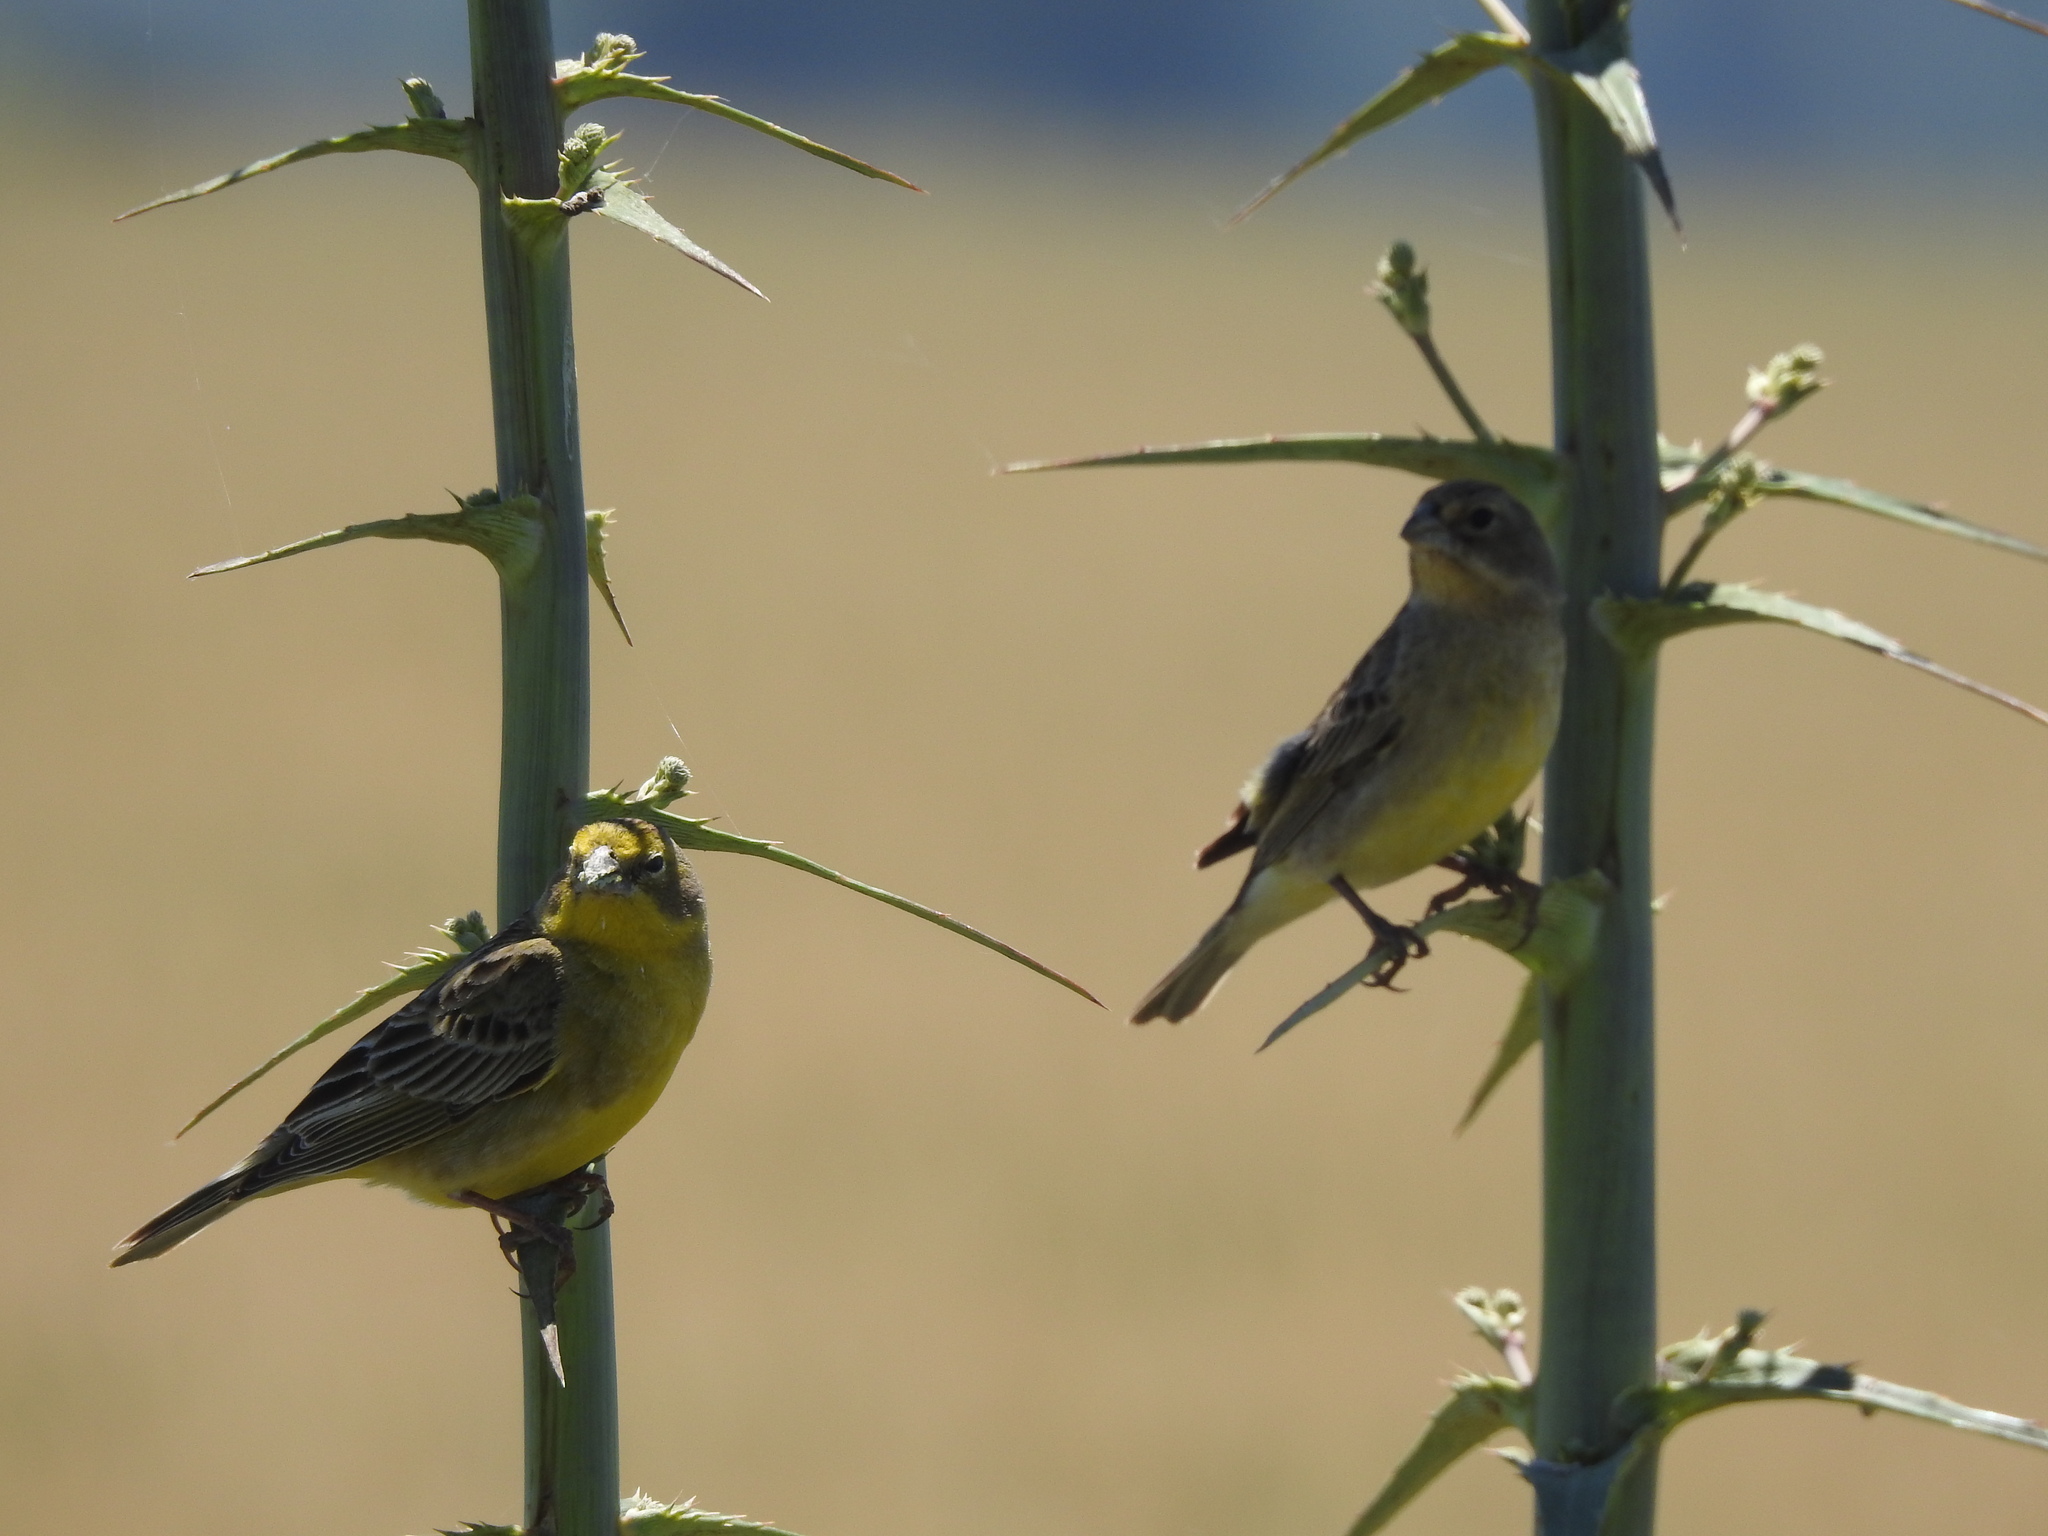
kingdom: Animalia
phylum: Chordata
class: Aves
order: Passeriformes
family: Thraupidae
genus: Sicalis
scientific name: Sicalis luteola
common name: Grassland yellow-finch
